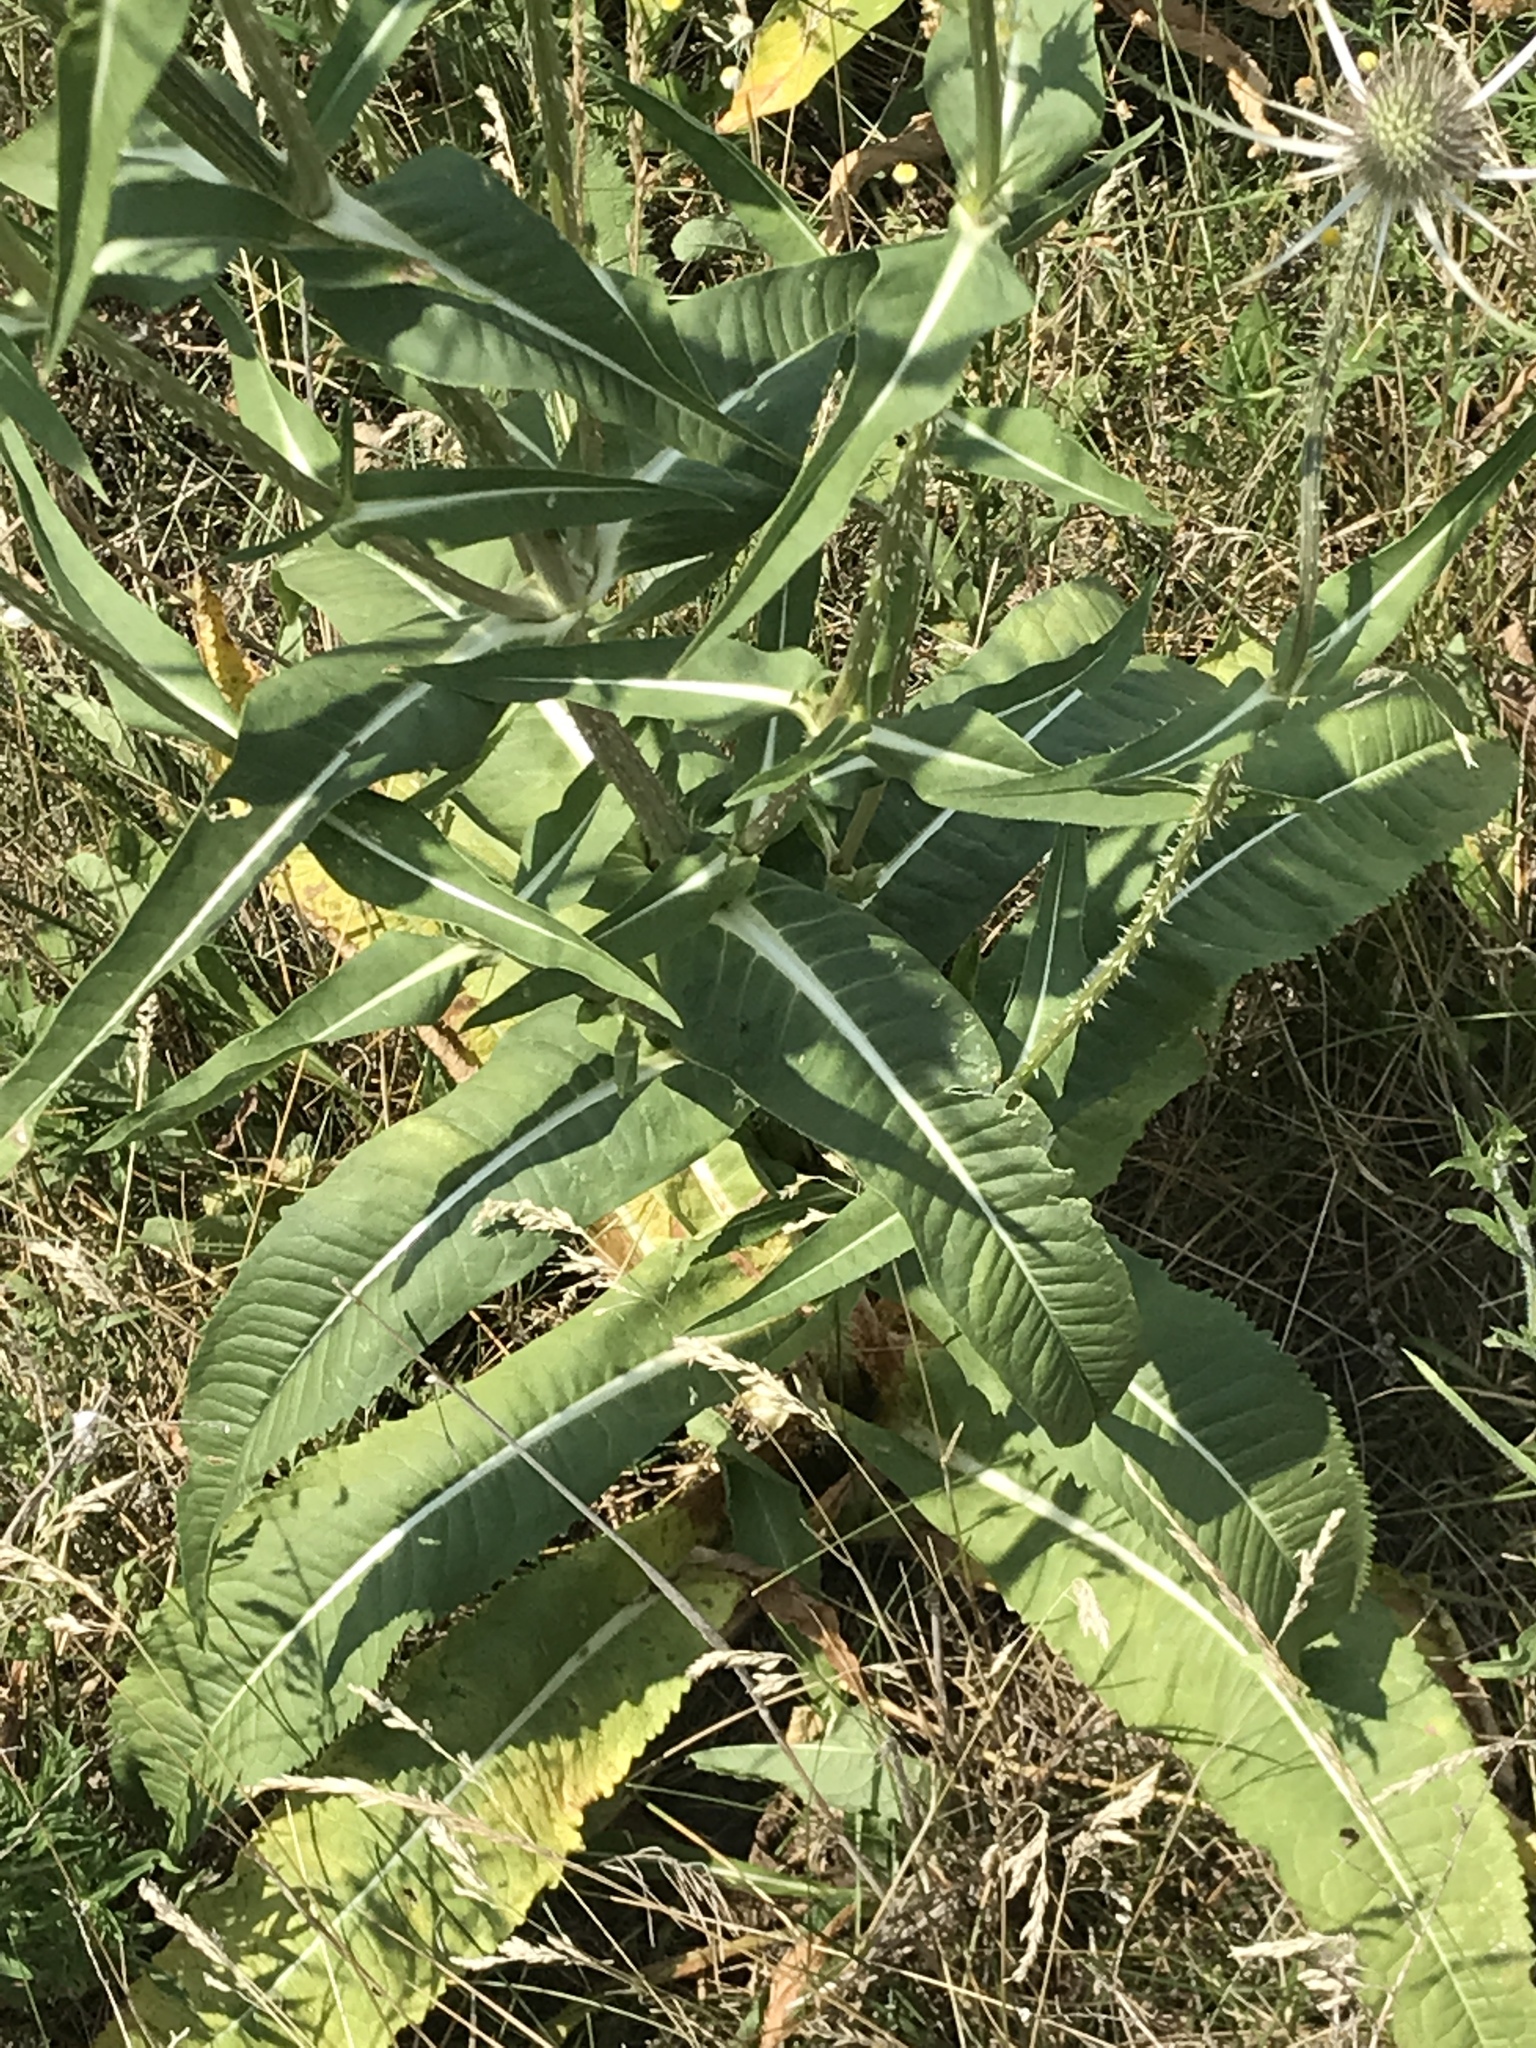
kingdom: Plantae
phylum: Tracheophyta
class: Magnoliopsida
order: Dipsacales
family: Caprifoliaceae
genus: Dipsacus
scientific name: Dipsacus fullonum
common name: Teasel
